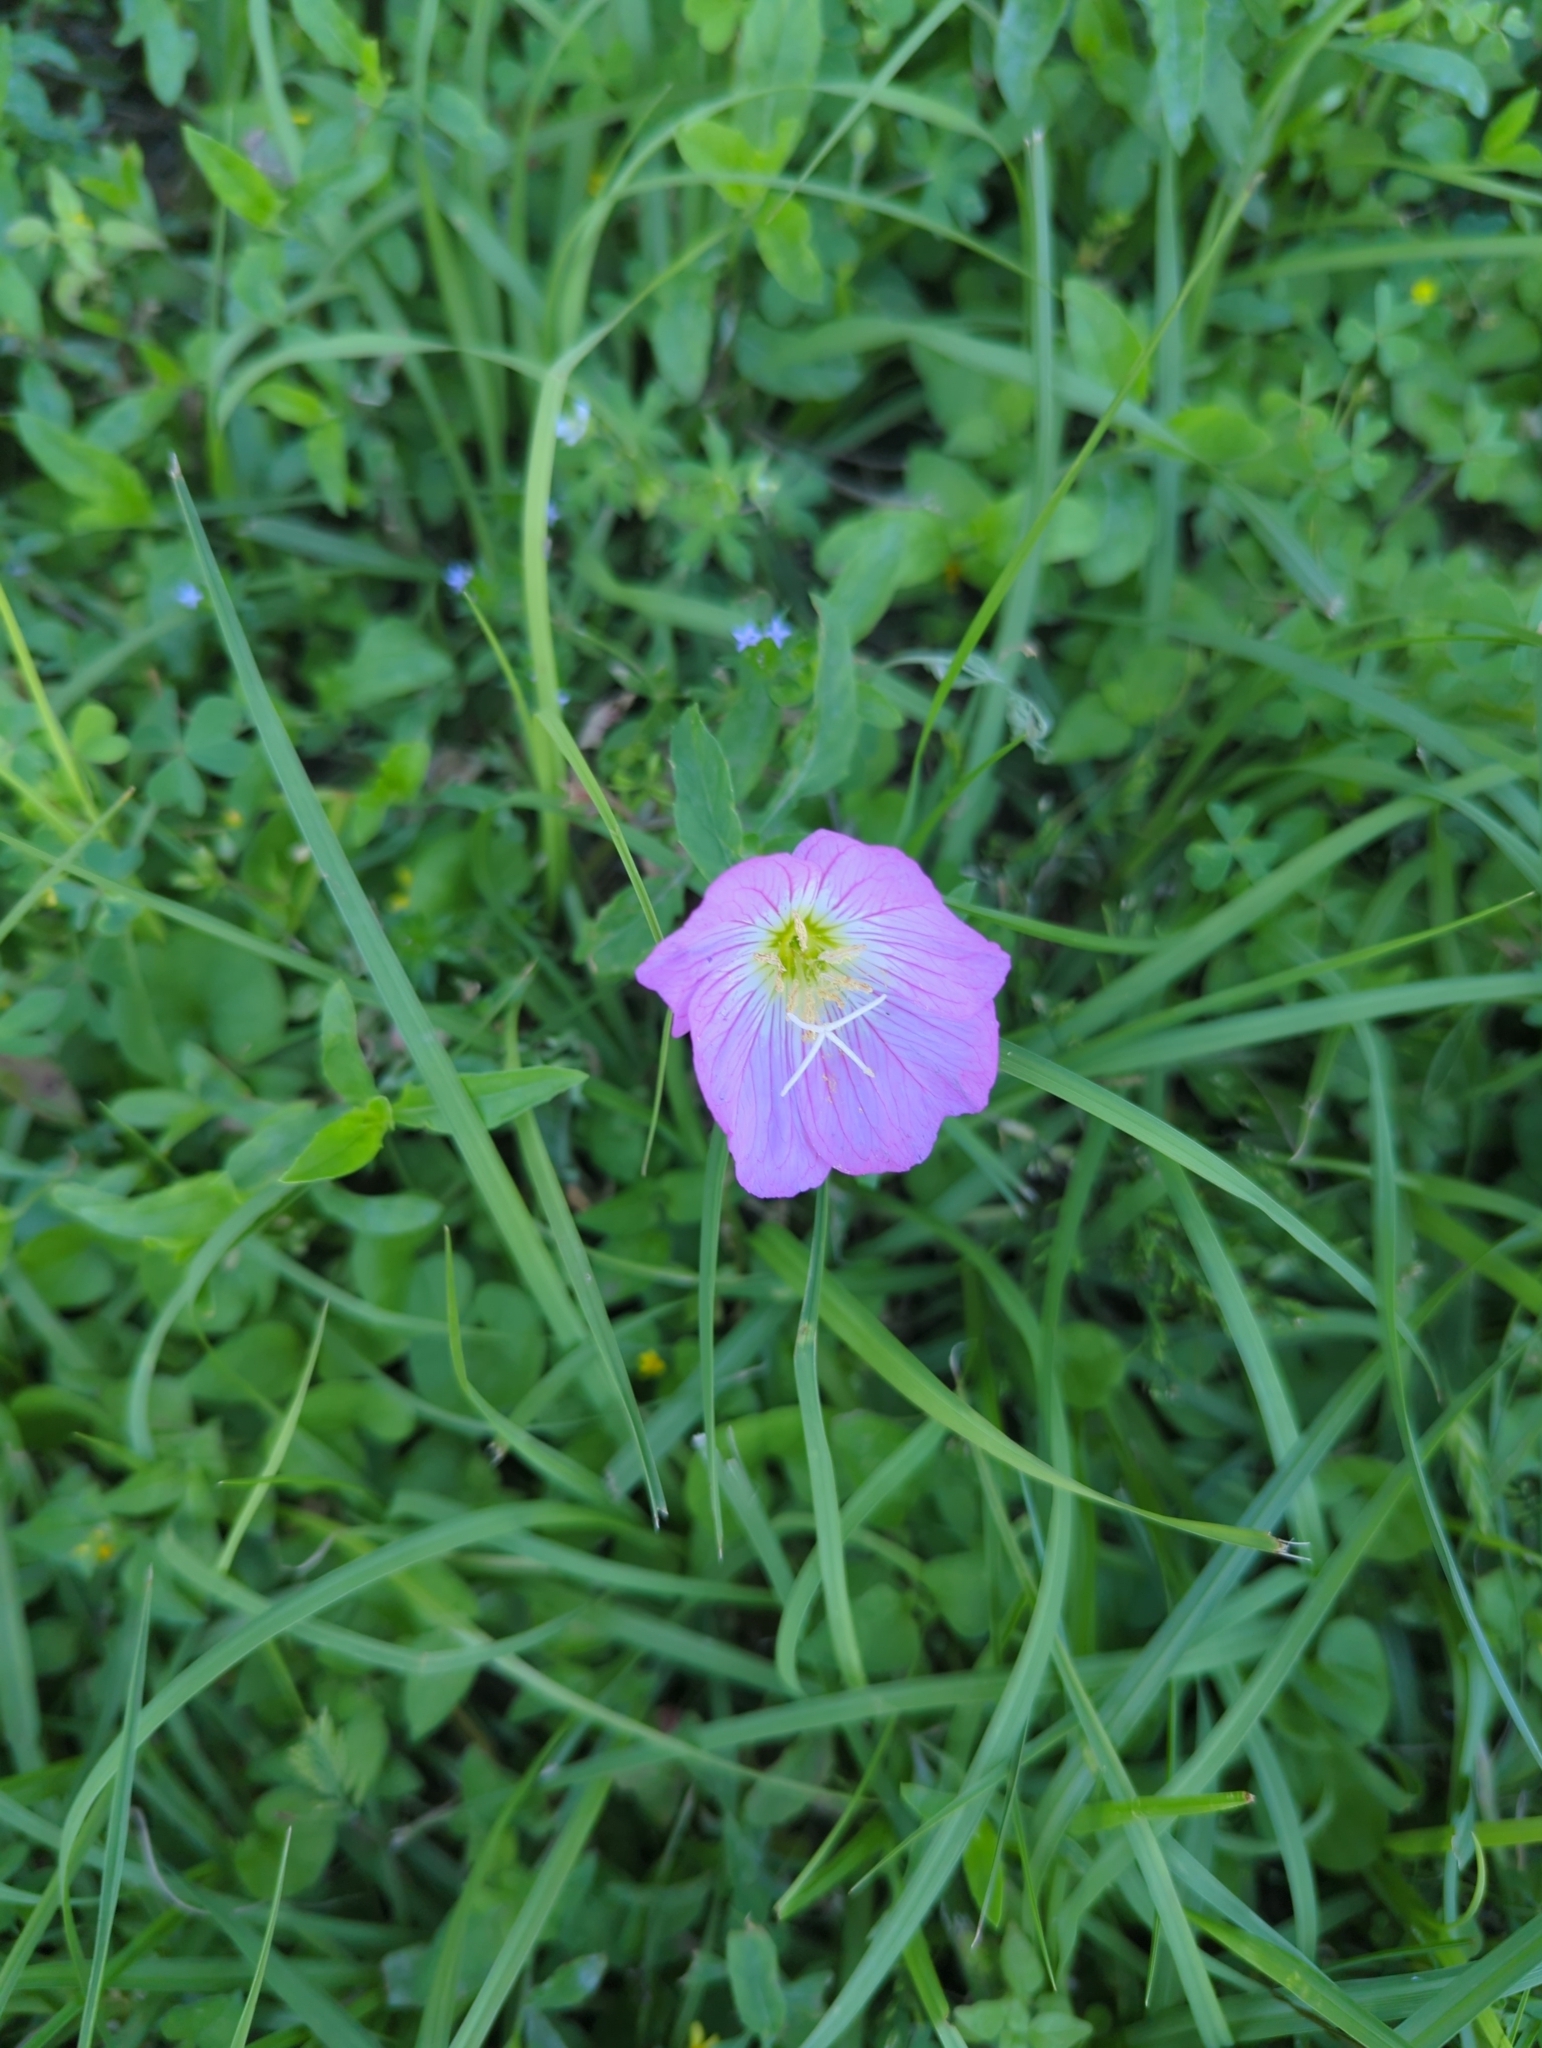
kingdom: Plantae
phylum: Tracheophyta
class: Magnoliopsida
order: Myrtales
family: Onagraceae
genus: Oenothera
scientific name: Oenothera speciosa
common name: White evening-primrose
